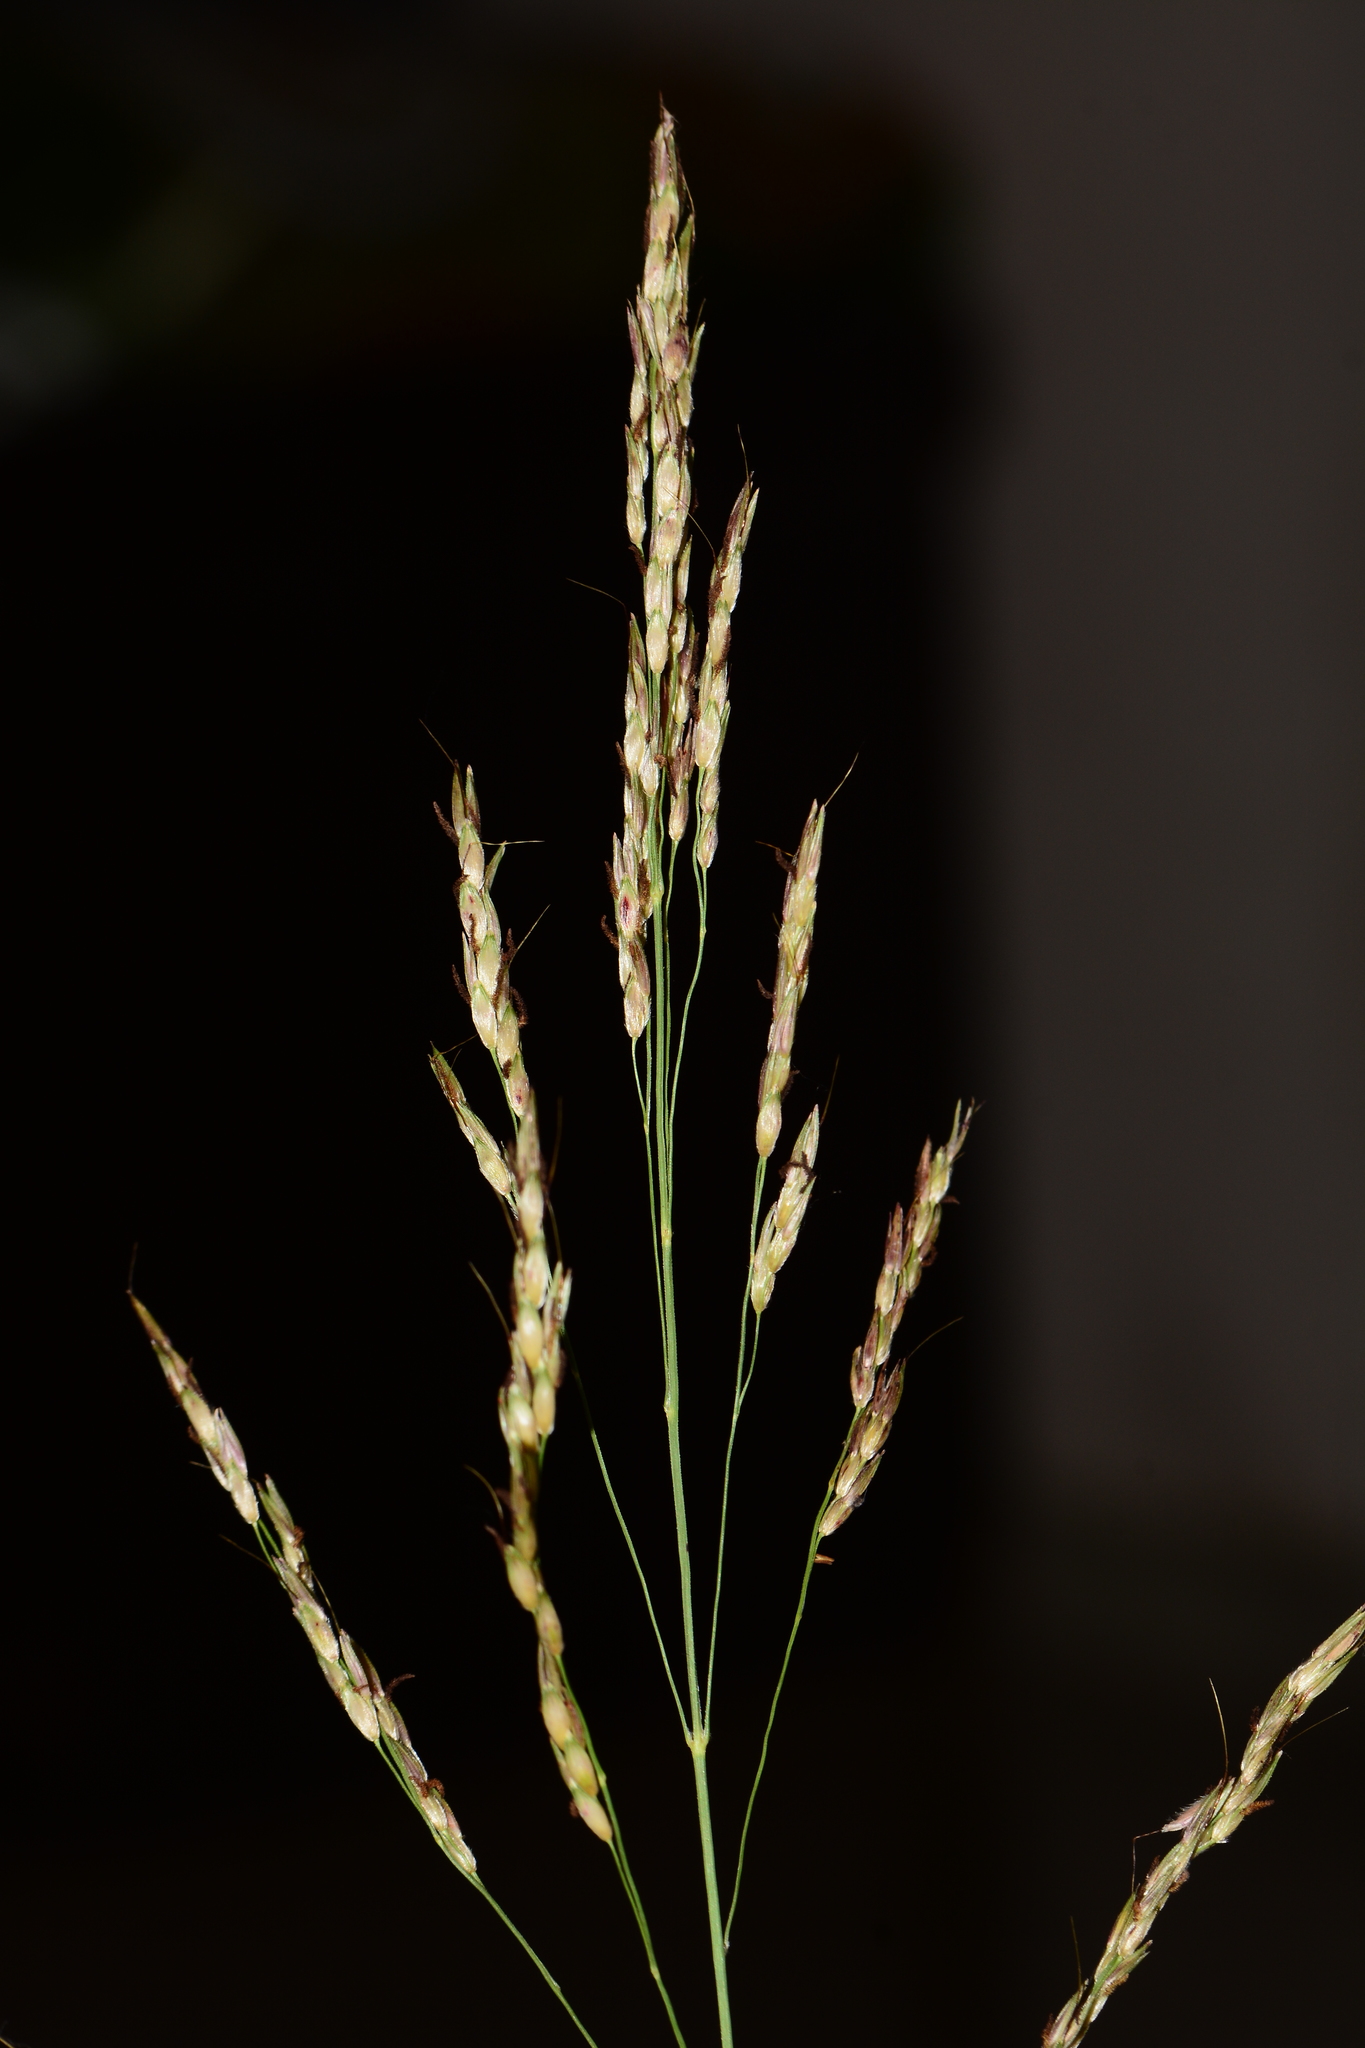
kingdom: Plantae
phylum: Tracheophyta
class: Liliopsida
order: Poales
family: Poaceae
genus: Sorghum
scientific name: Sorghum arundinaceum
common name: Sorghum
